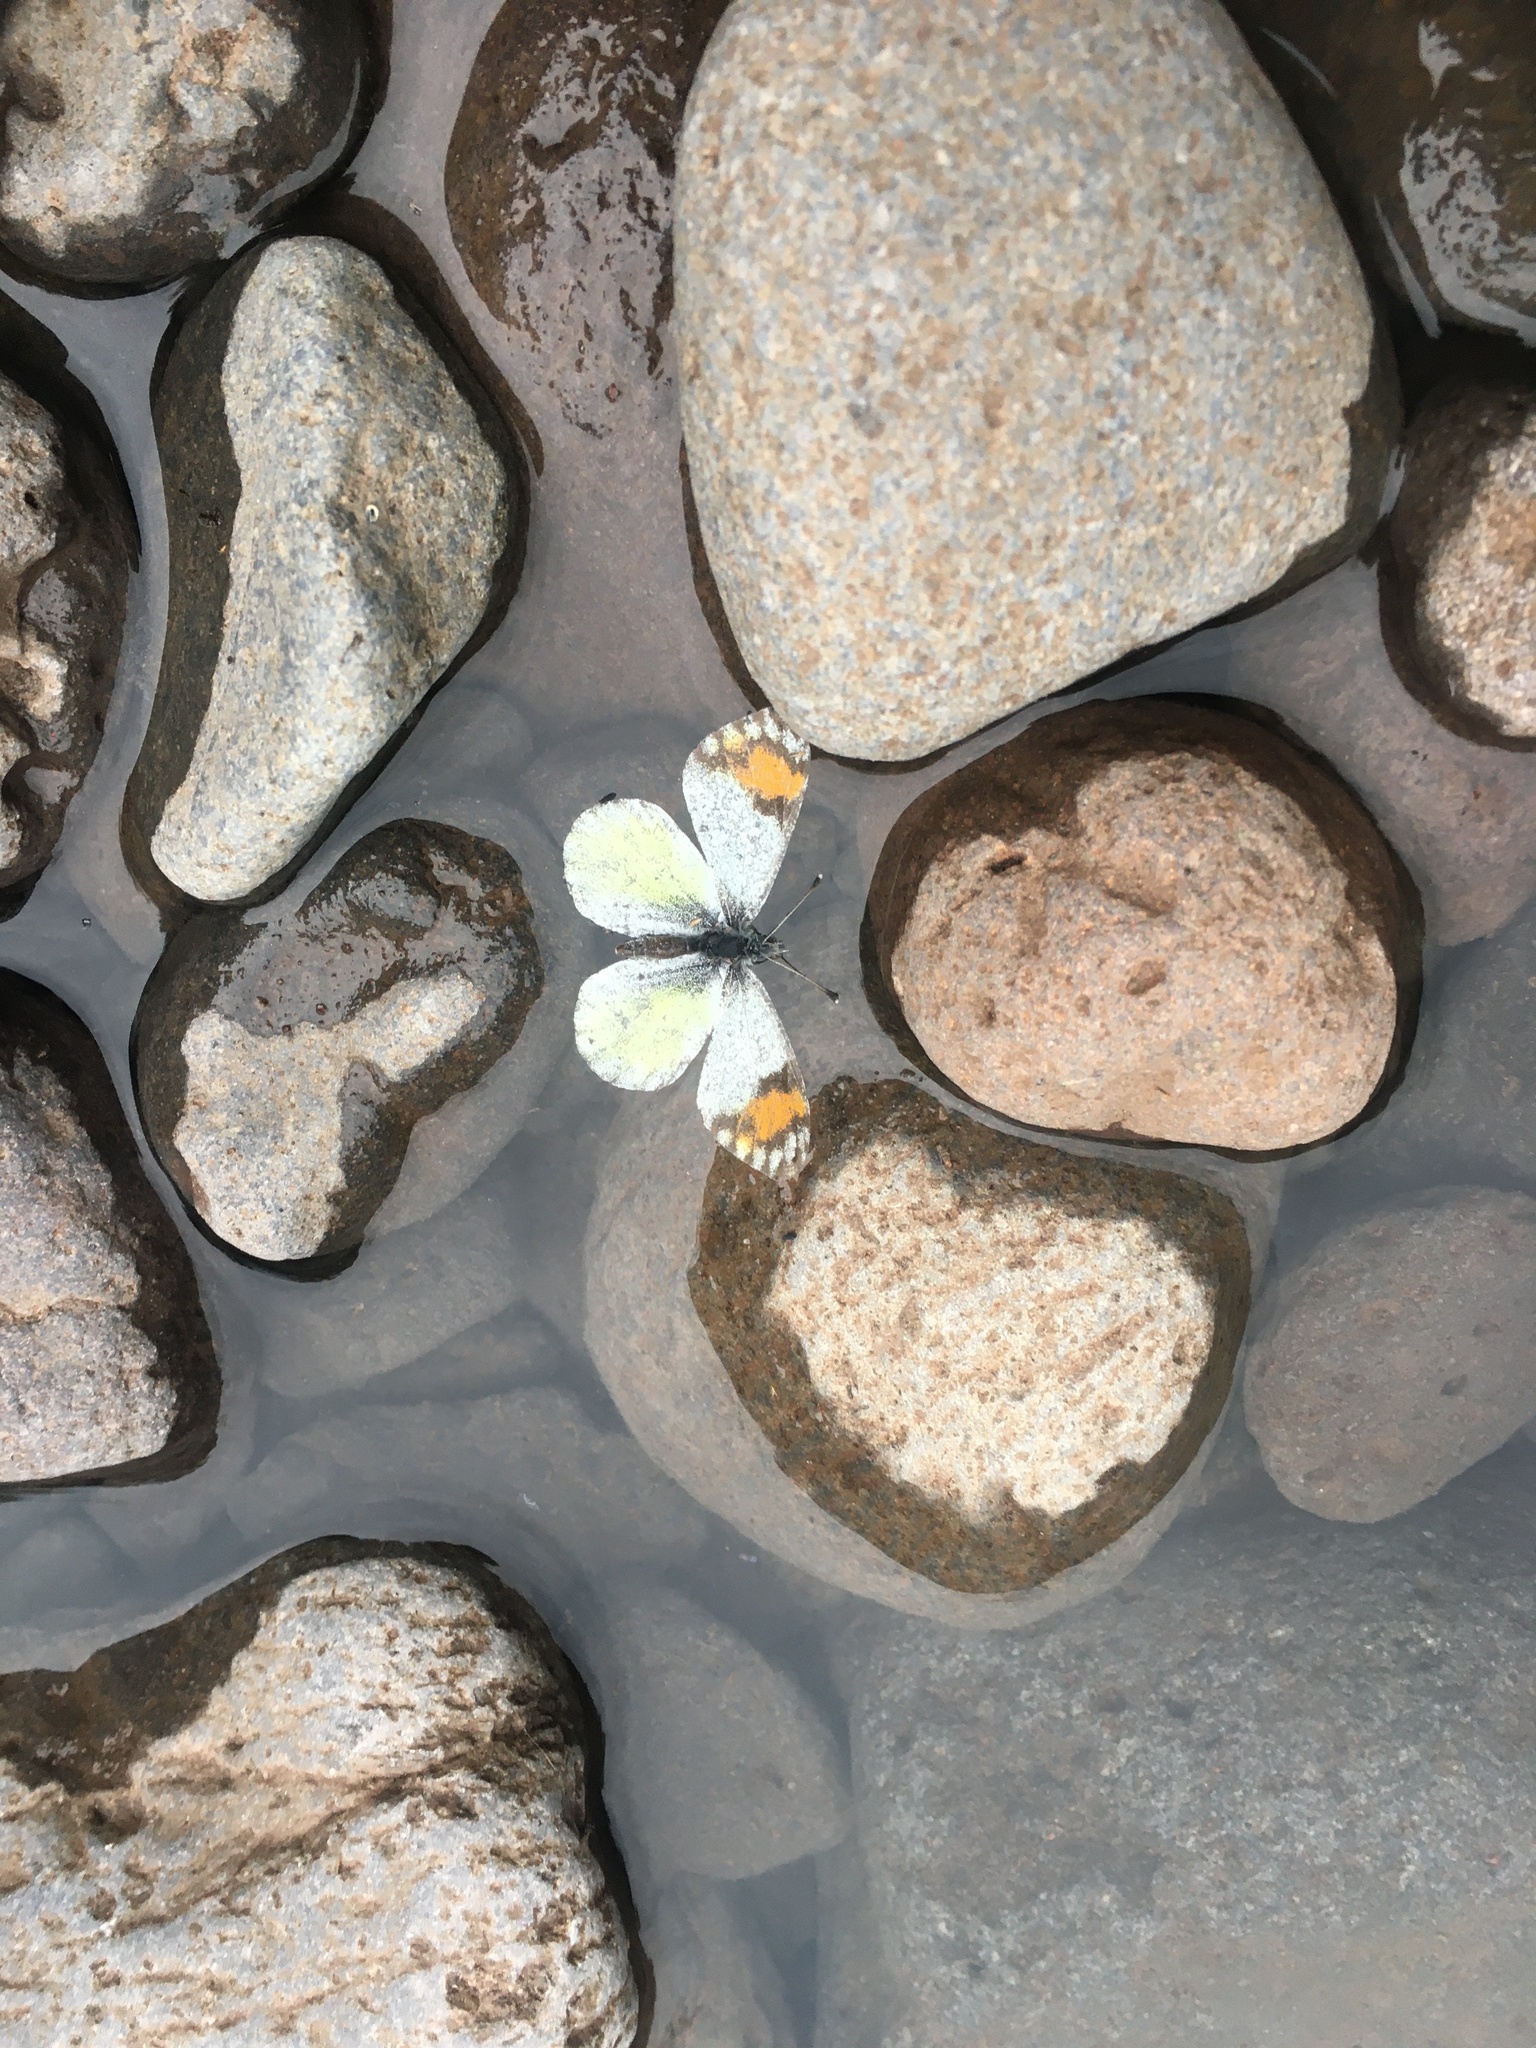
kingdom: Animalia
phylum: Arthropoda
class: Insecta
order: Lepidoptera
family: Pieridae
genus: Anthocharis
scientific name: Anthocharis thoosa
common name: Southwestern orangetip
